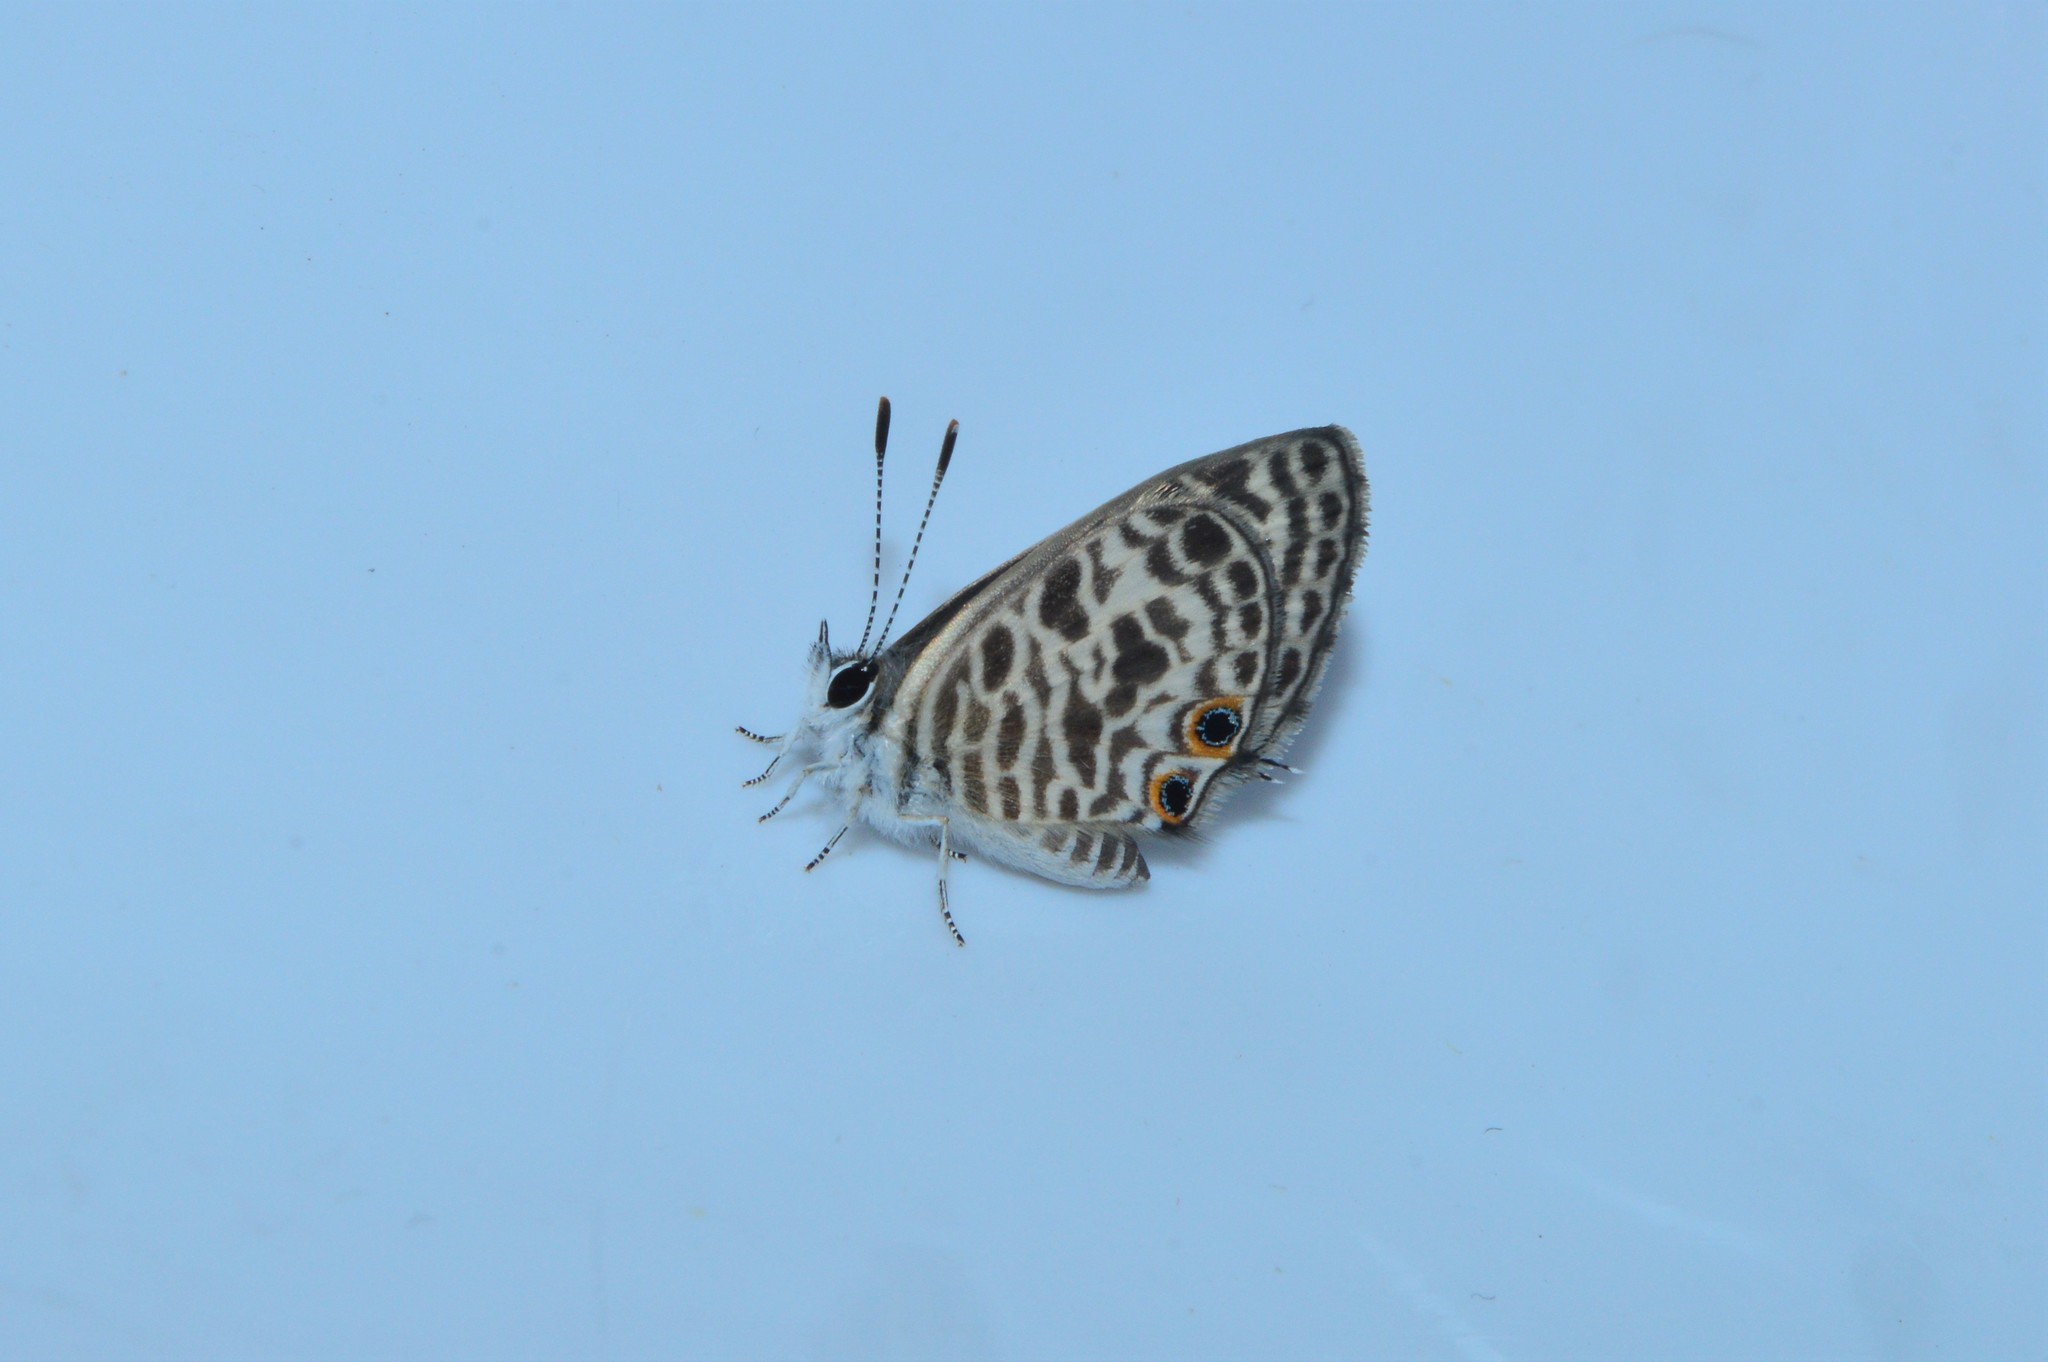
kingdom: Animalia
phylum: Arthropoda
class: Insecta
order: Lepidoptera
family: Lycaenidae
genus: Leptotes
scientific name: Leptotes plinius
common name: Zebra blue
